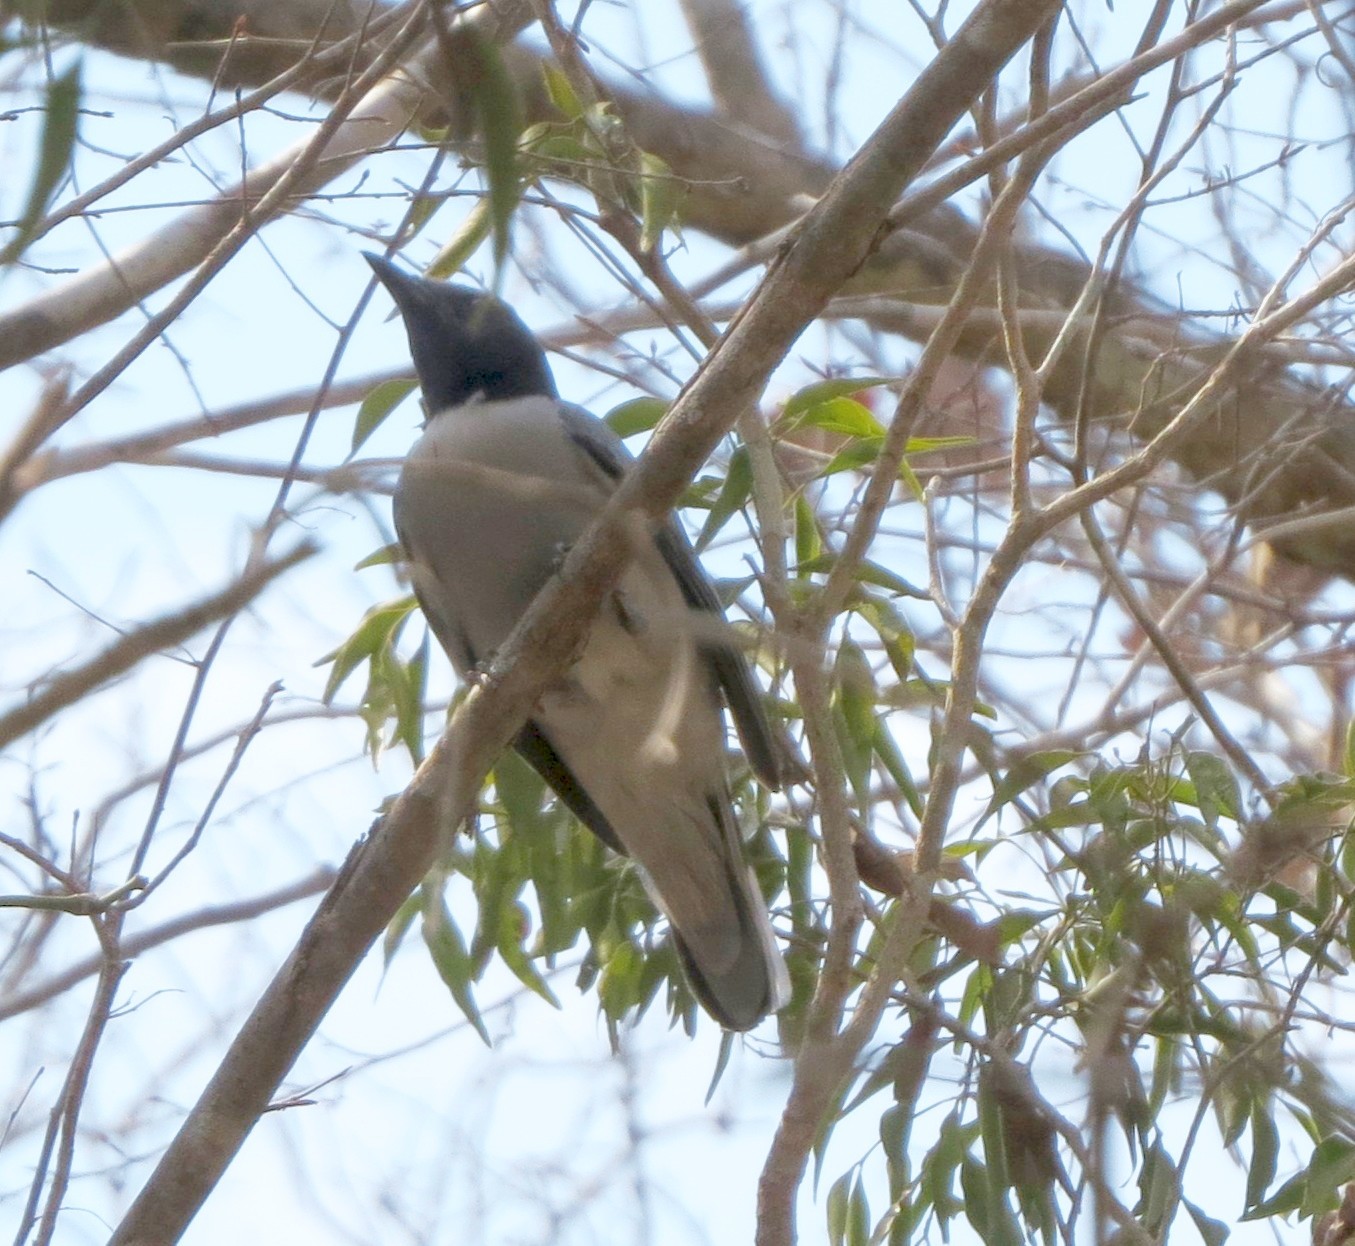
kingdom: Animalia
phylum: Chordata
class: Aves
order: Passeriformes
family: Campephagidae
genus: Coracina
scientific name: Coracina cinerea
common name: Madagascan cuckooshrike
